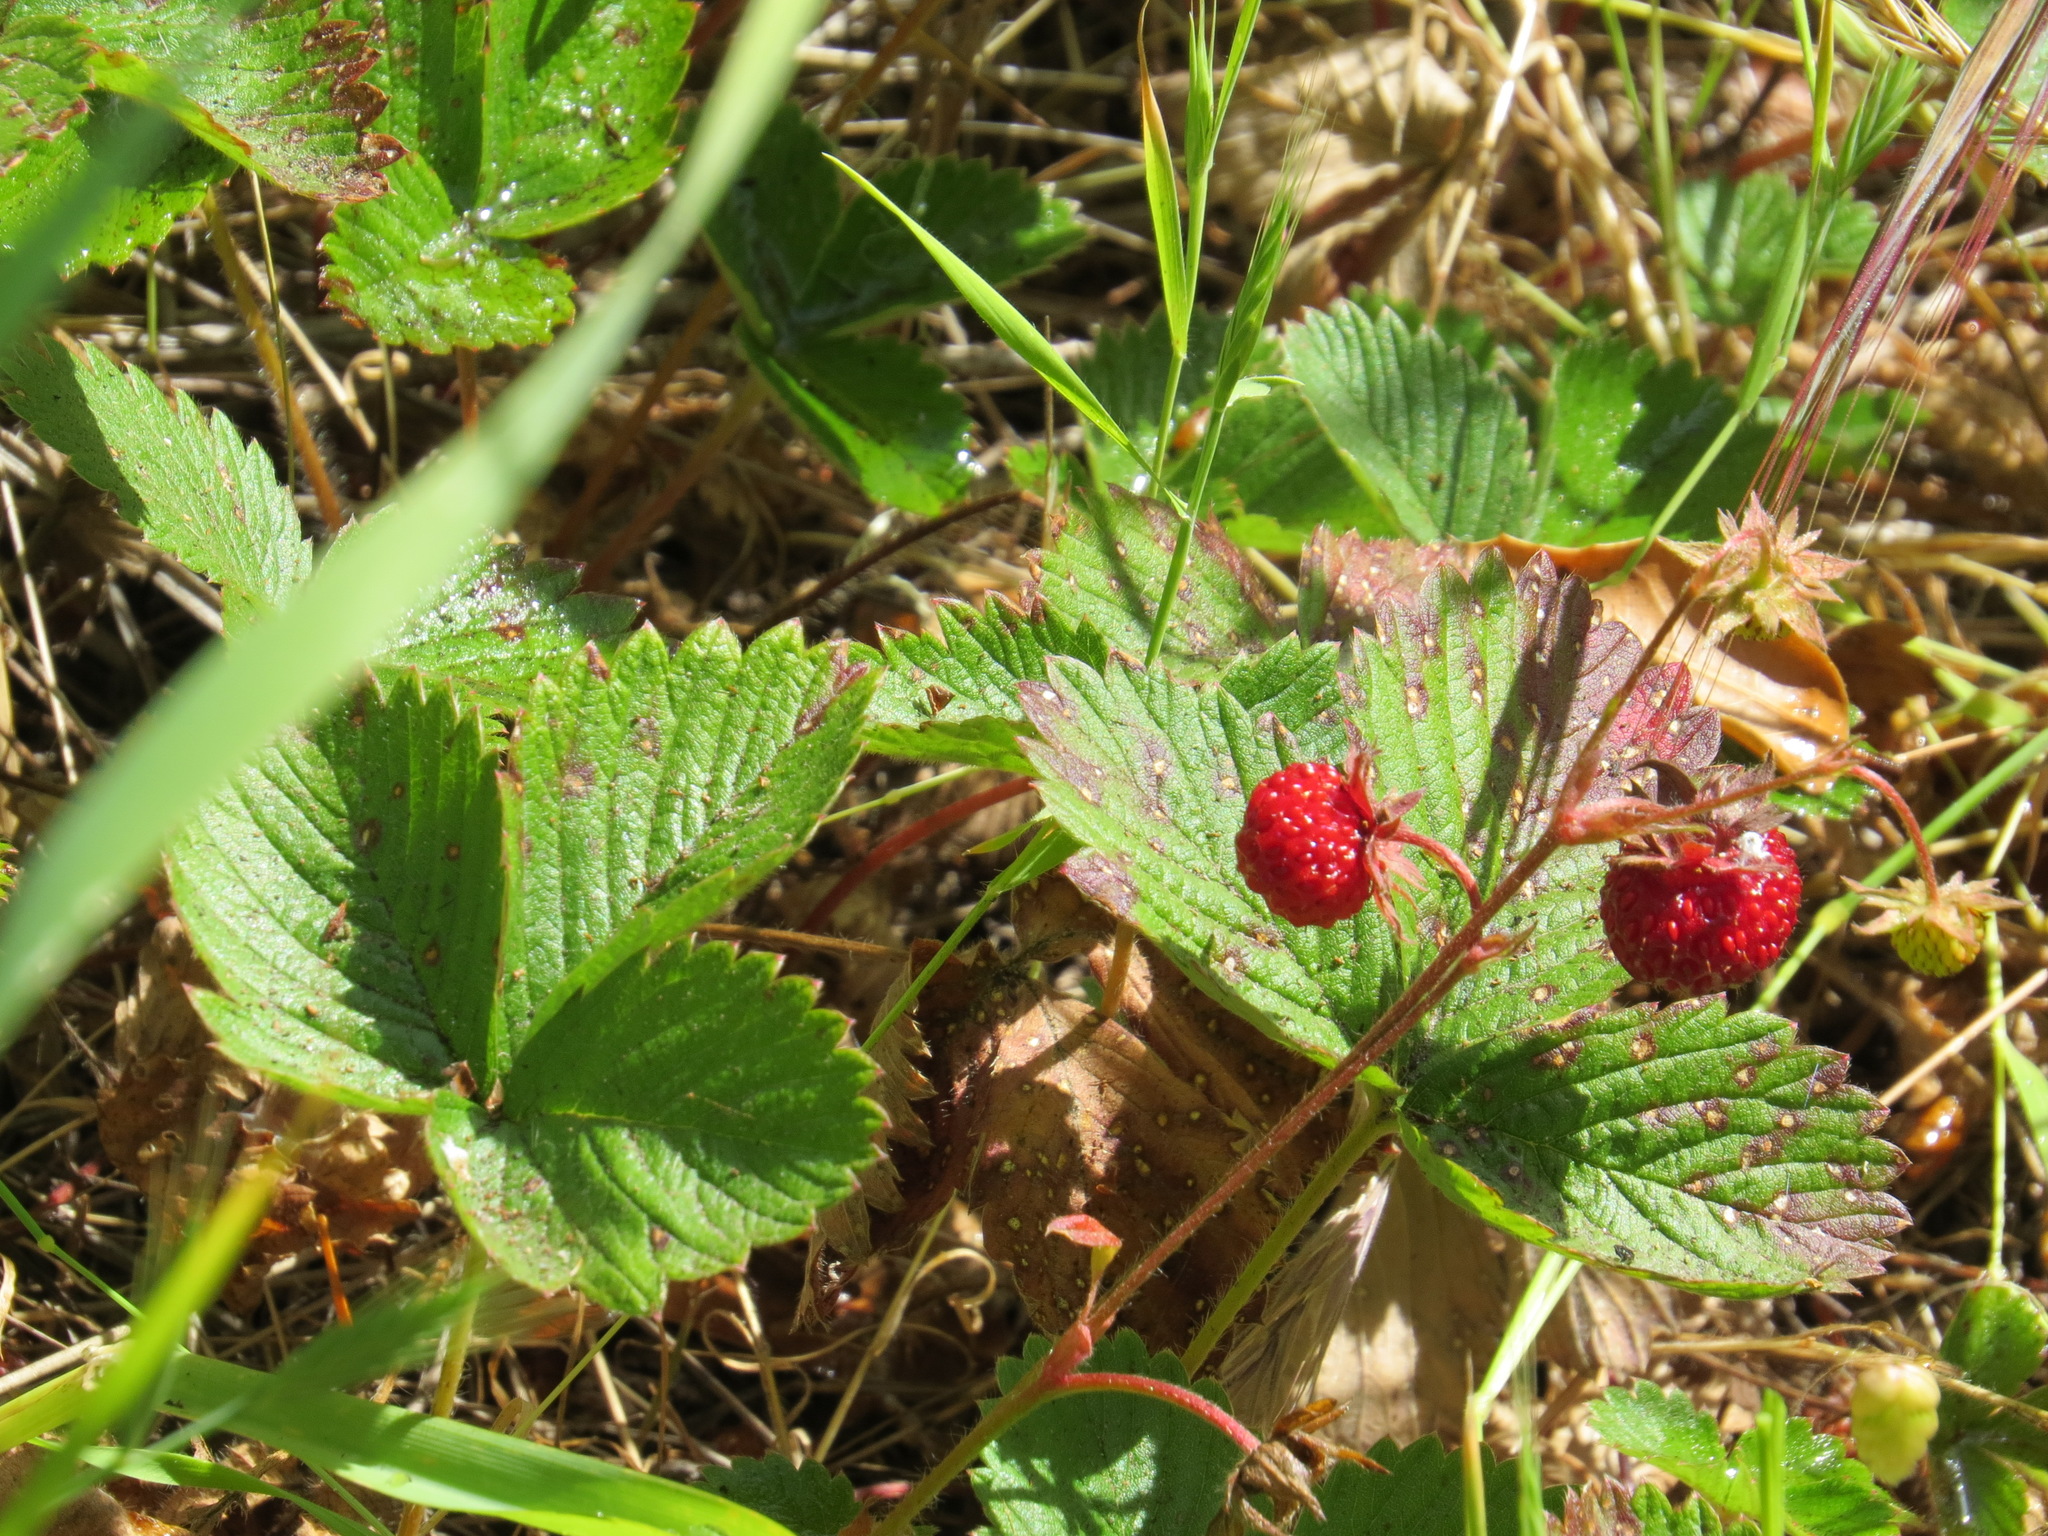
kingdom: Plantae
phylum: Tracheophyta
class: Magnoliopsida
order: Rosales
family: Rosaceae
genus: Fragaria
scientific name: Fragaria vesca
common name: Wild strawberry
